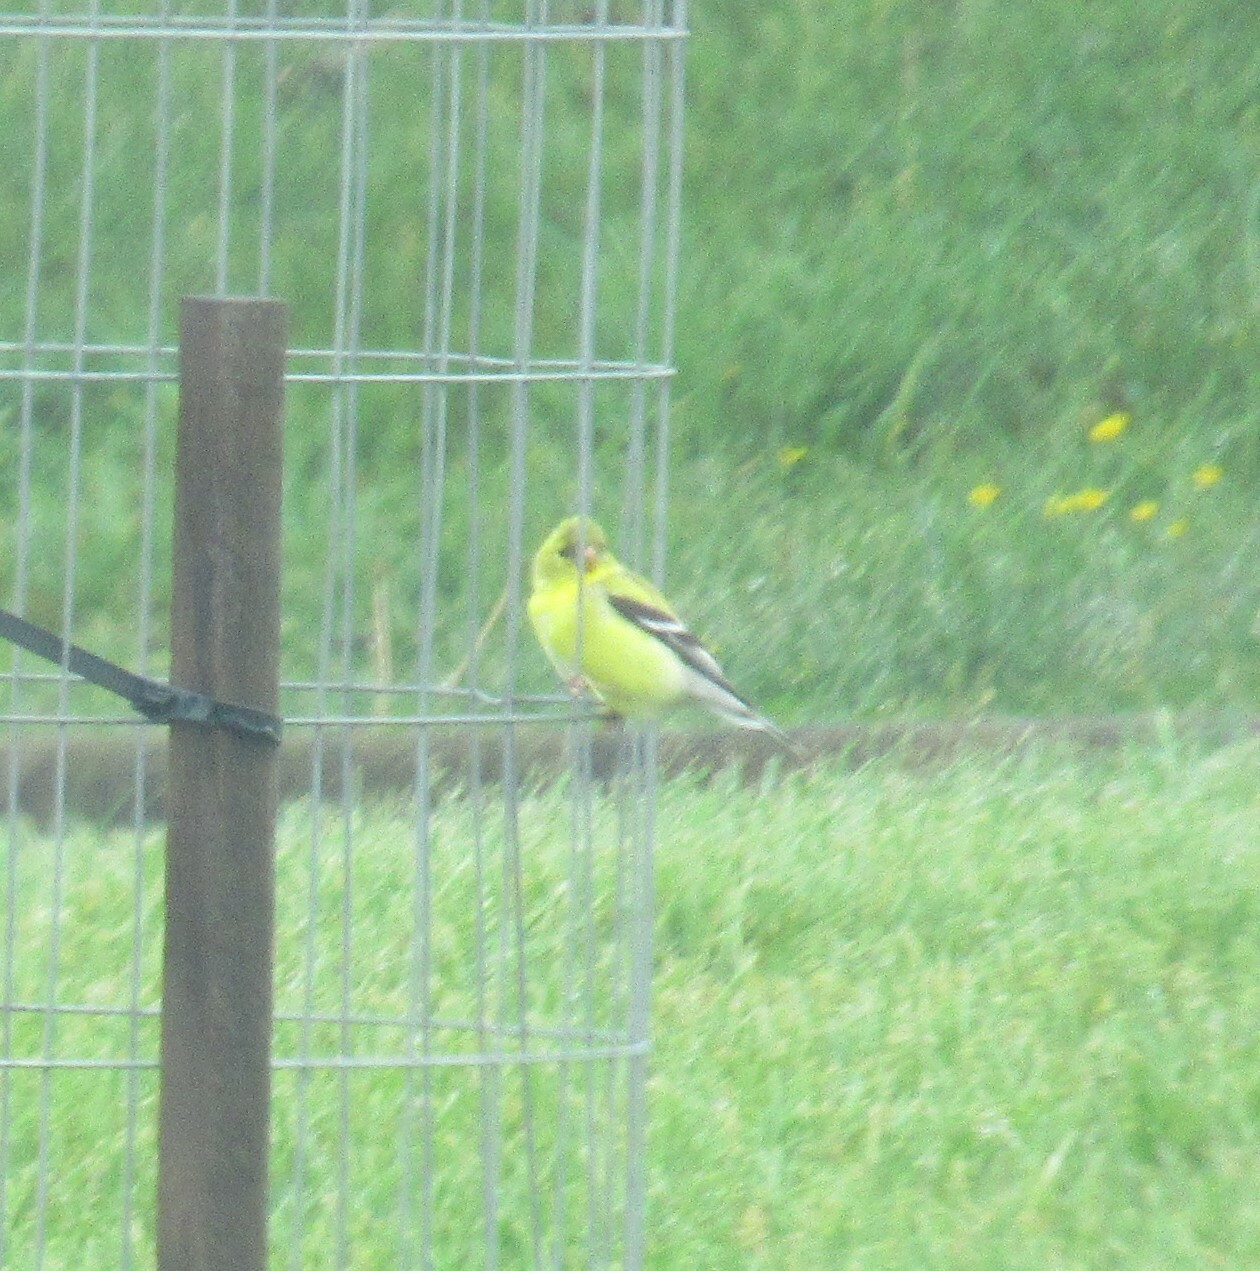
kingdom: Animalia
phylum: Chordata
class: Aves
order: Passeriformes
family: Fringillidae
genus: Spinus
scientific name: Spinus tristis
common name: American goldfinch
